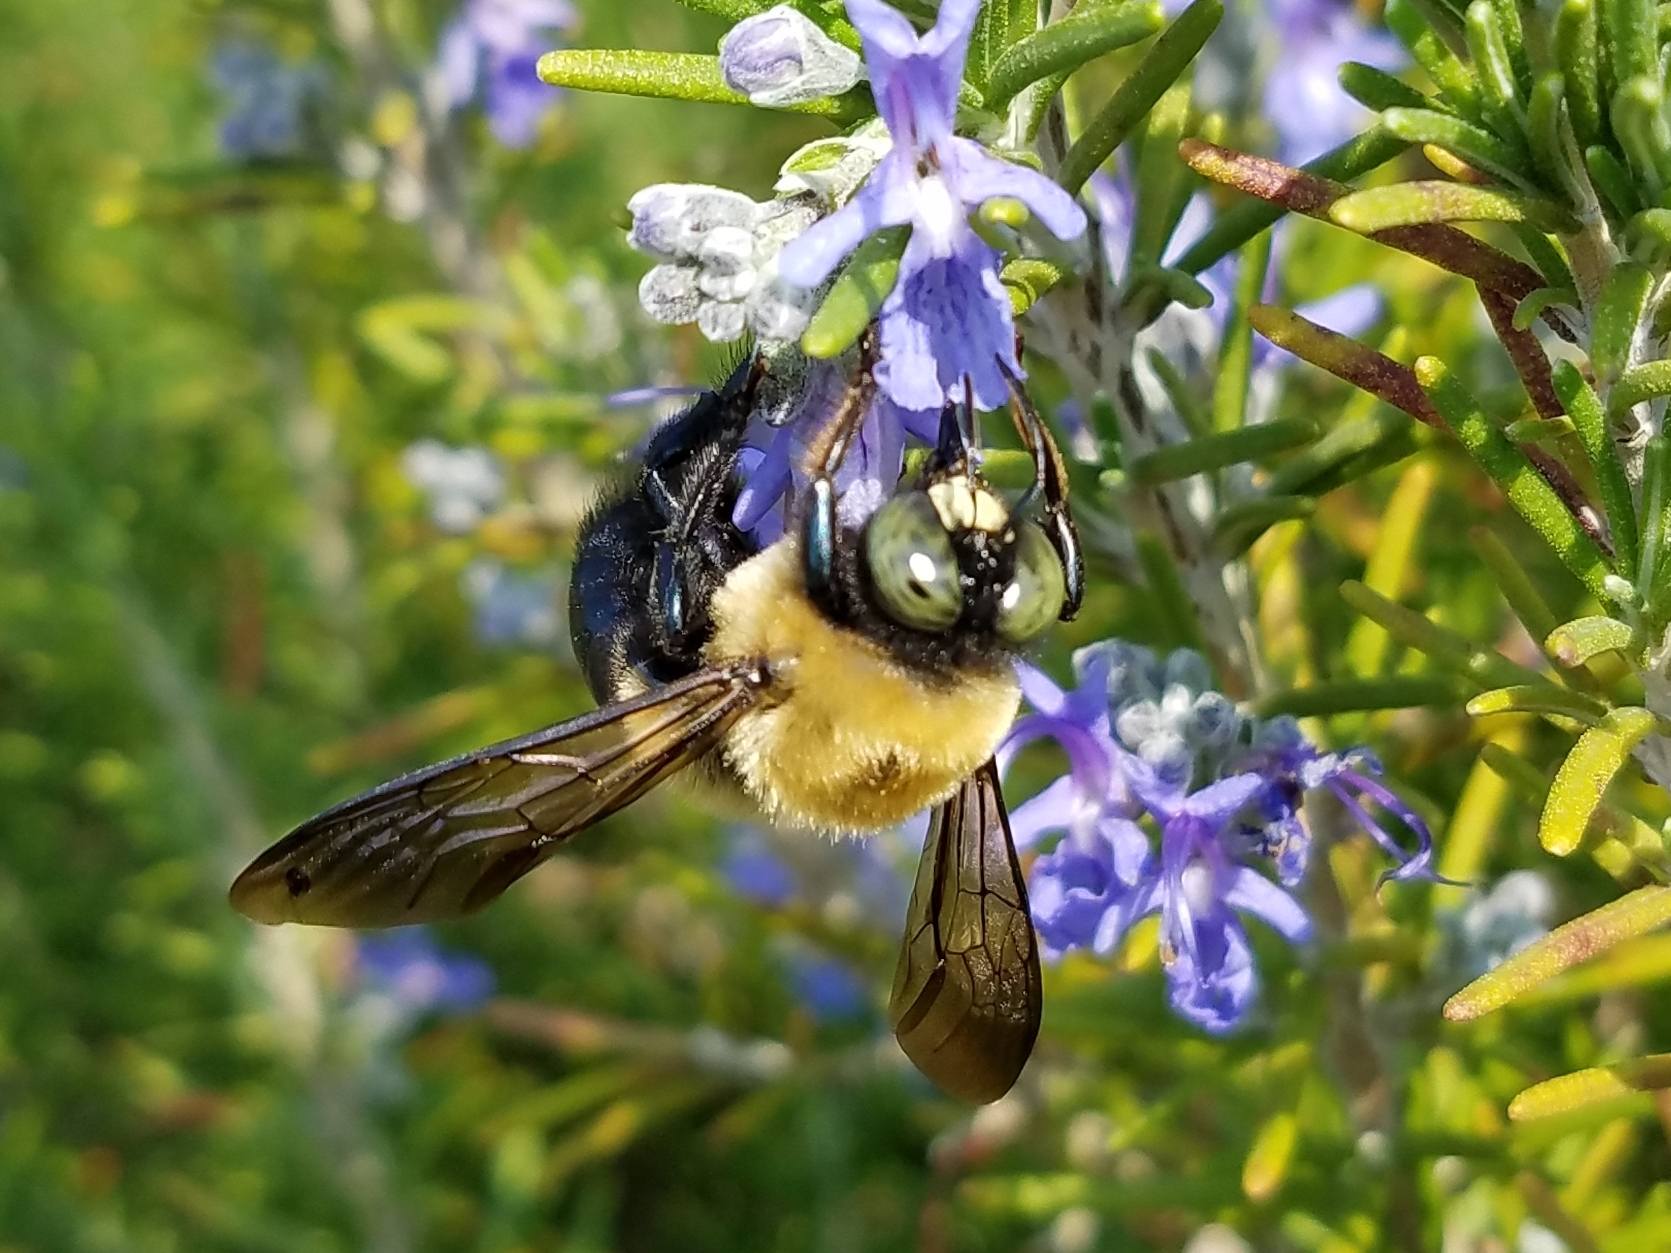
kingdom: Animalia
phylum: Arthropoda
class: Insecta
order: Hymenoptera
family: Apidae
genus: Xylocopa
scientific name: Xylocopa virginica
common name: Carpenter bee
